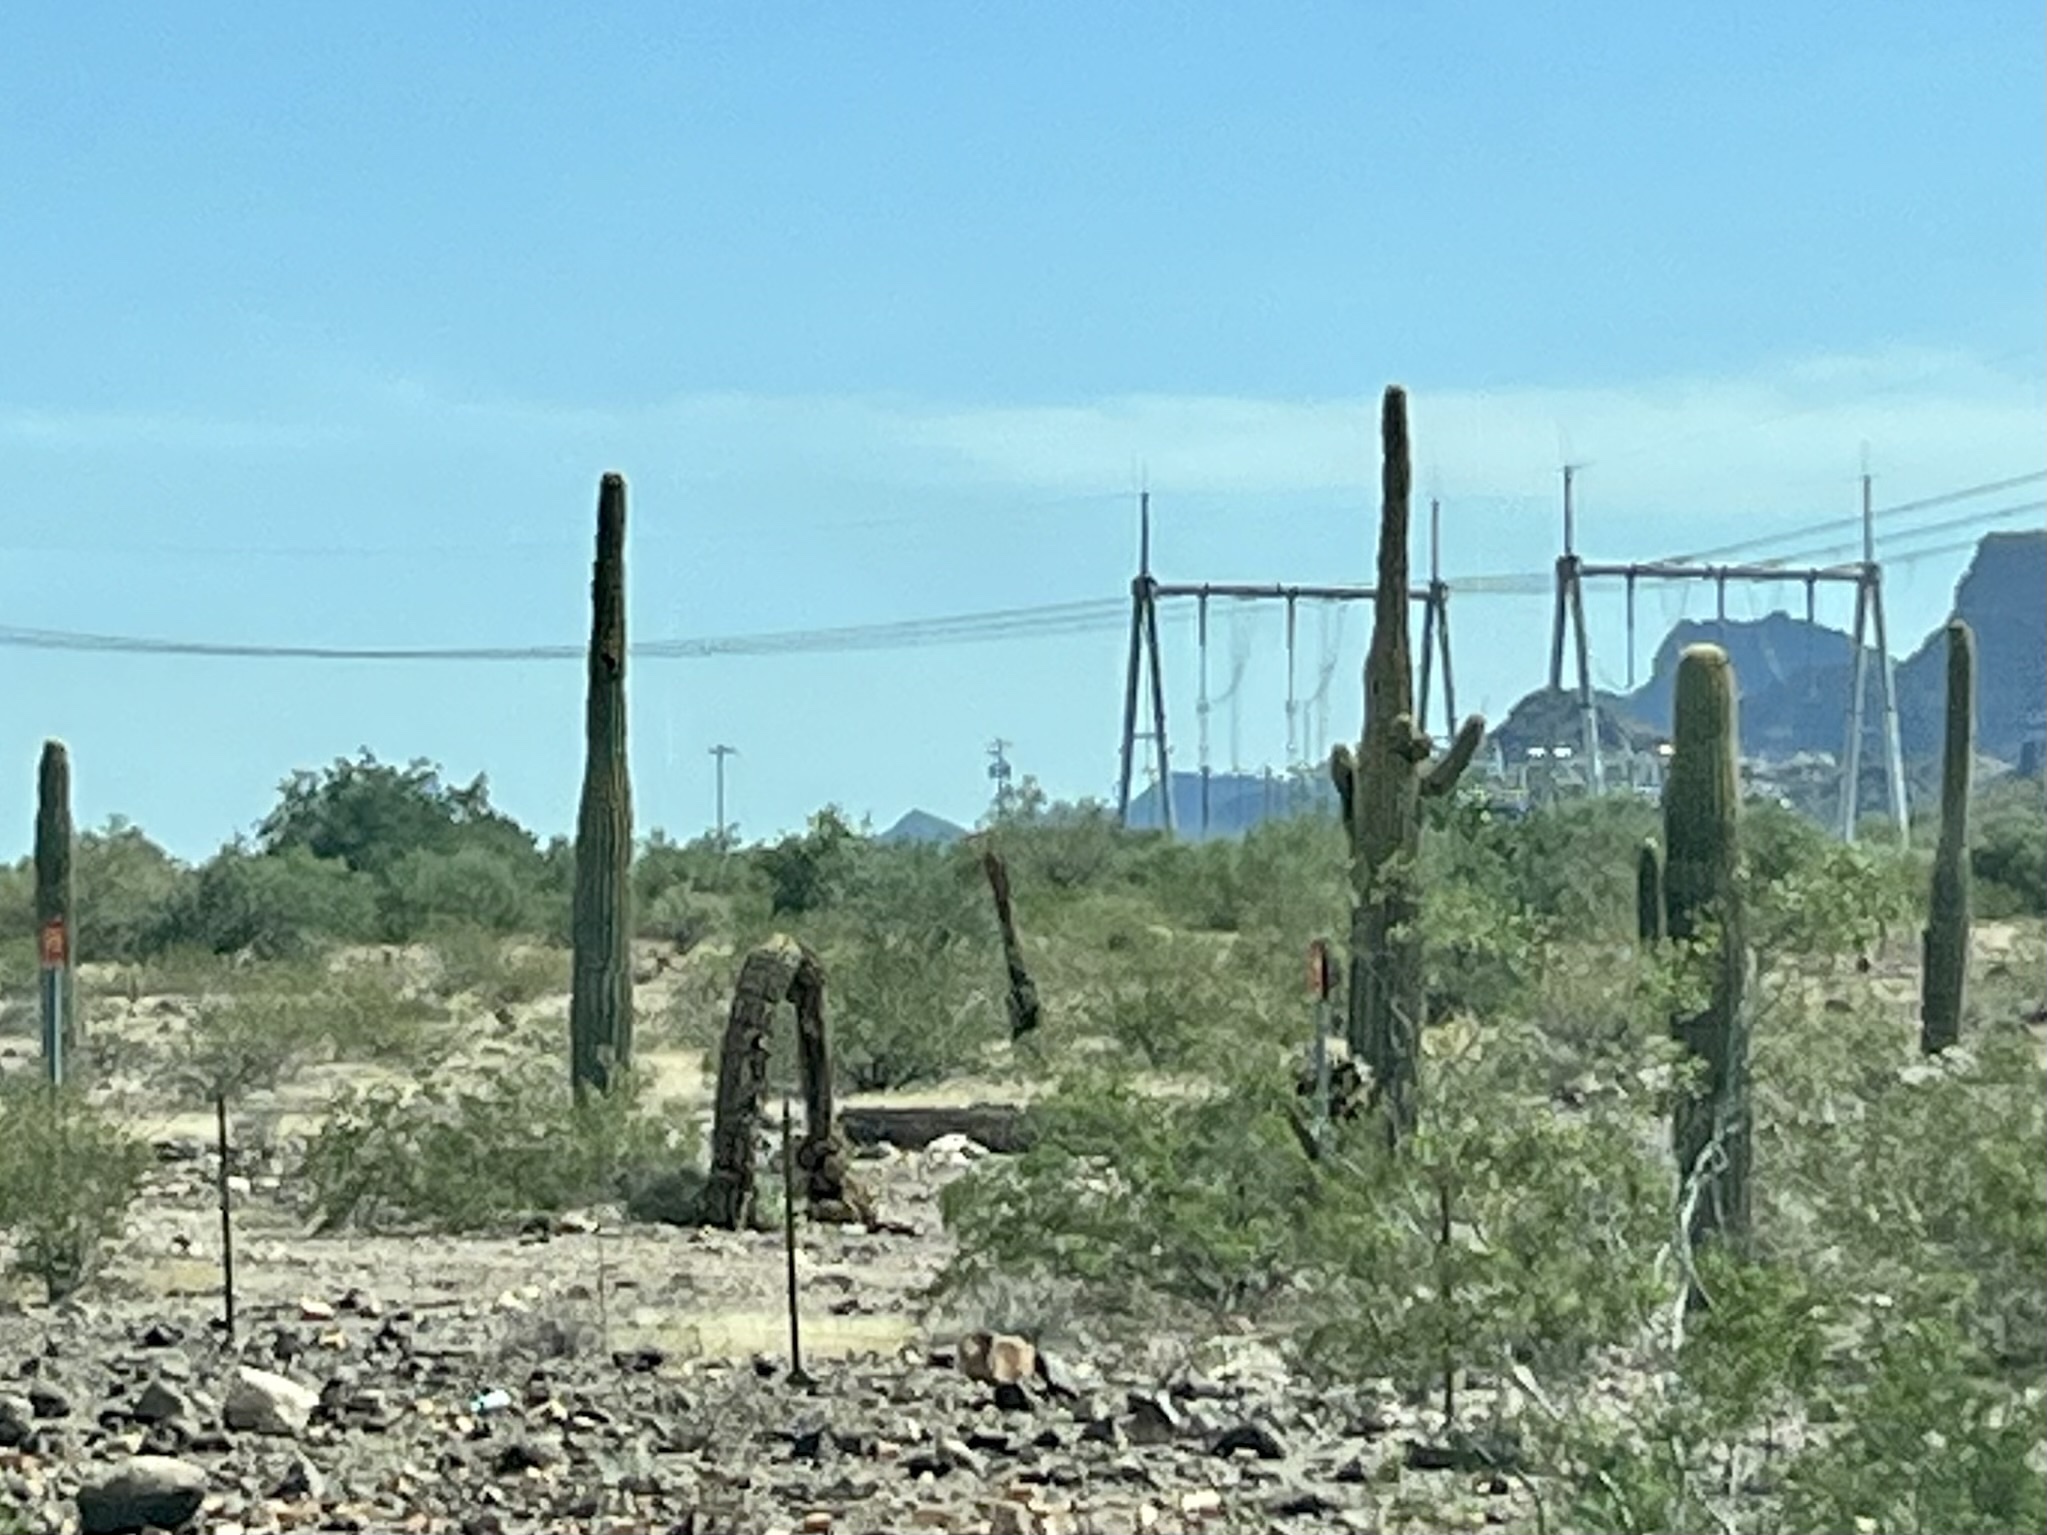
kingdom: Plantae
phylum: Tracheophyta
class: Magnoliopsida
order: Caryophyllales
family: Cactaceae
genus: Carnegiea
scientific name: Carnegiea gigantea
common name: Saguaro
